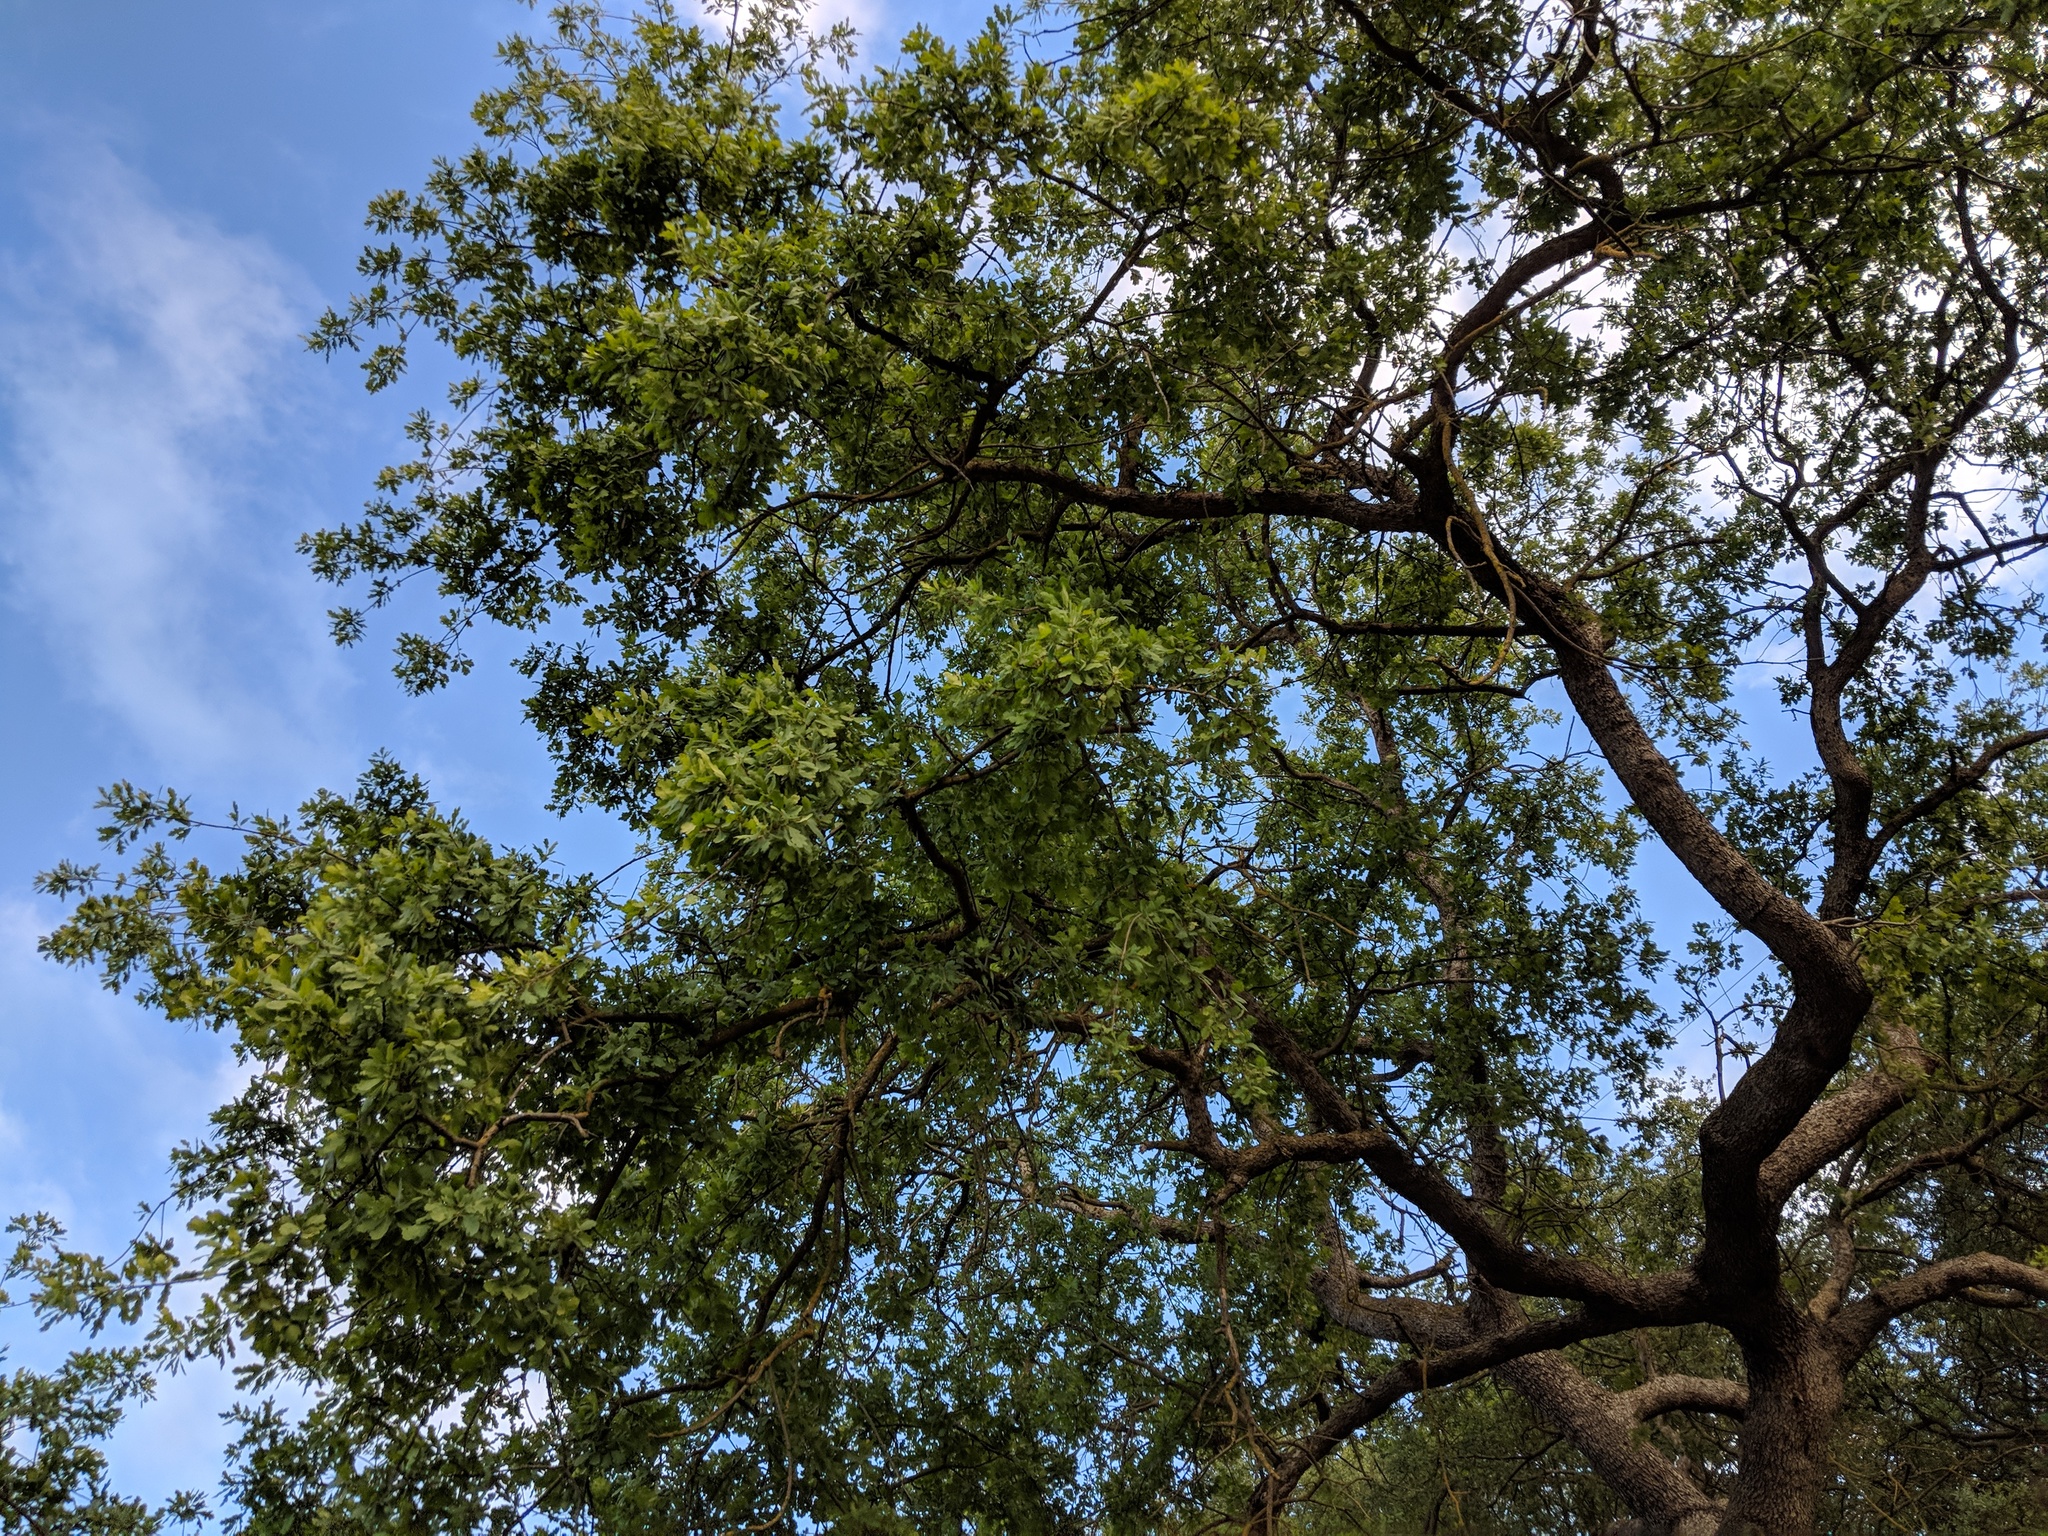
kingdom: Plantae
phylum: Tracheophyta
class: Magnoliopsida
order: Fagales
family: Fagaceae
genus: Quercus
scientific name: Quercus lobata
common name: Valley oak
